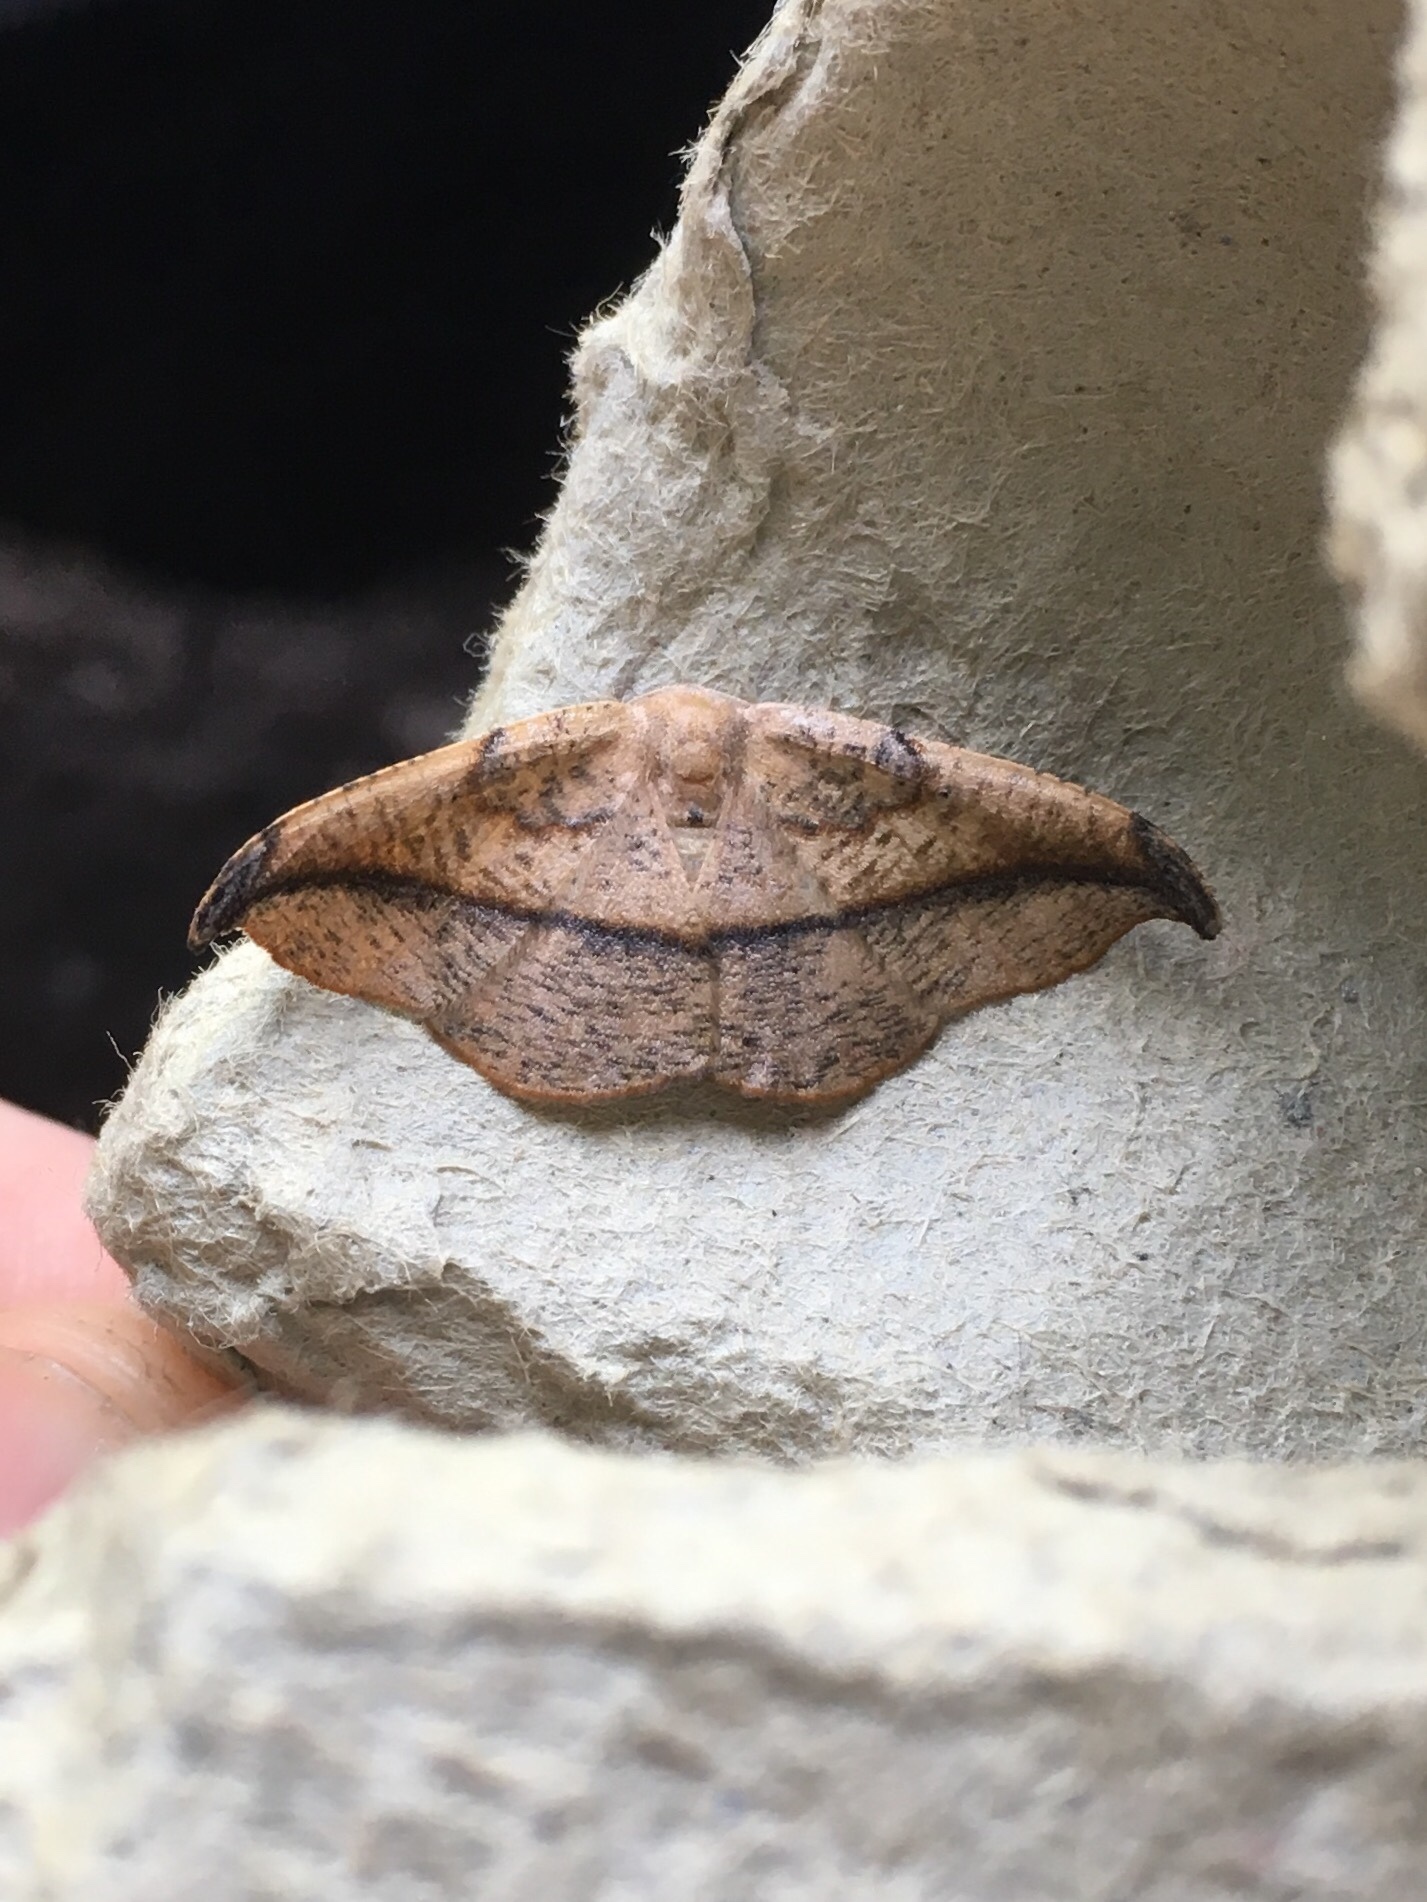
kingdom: Animalia
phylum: Arthropoda
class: Insecta
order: Lepidoptera
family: Geometridae
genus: Patalene
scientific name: Patalene olyzonaria
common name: Juniper geometer moth
